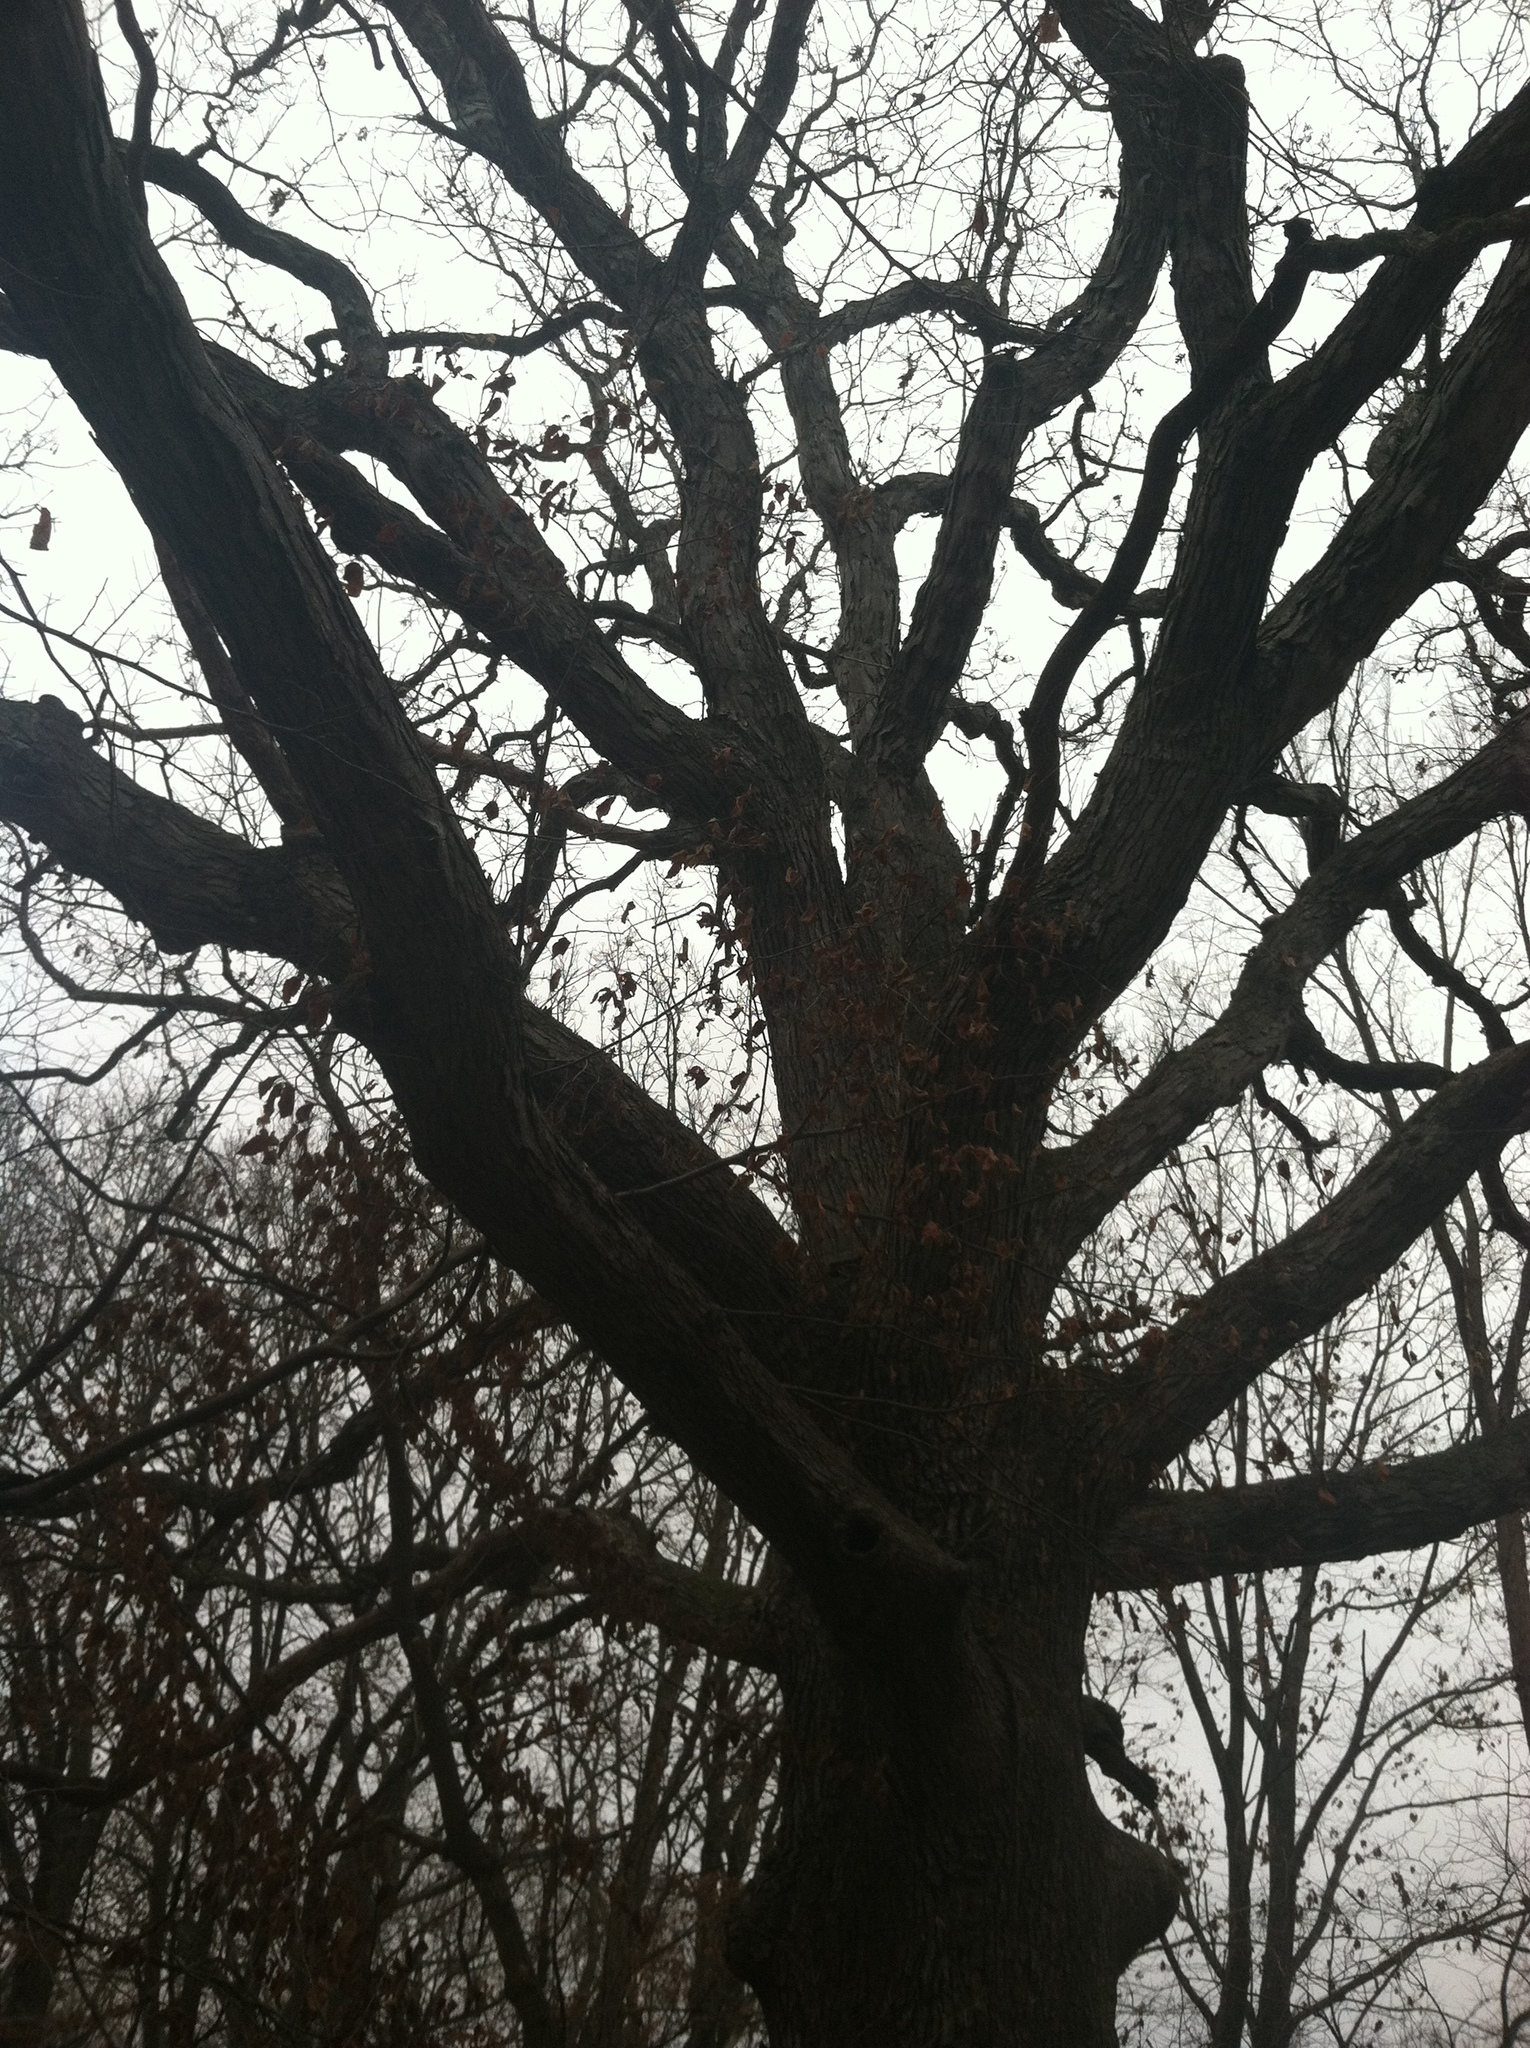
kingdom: Plantae
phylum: Tracheophyta
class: Magnoliopsida
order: Fagales
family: Fagaceae
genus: Quercus
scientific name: Quercus alba
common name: White oak
